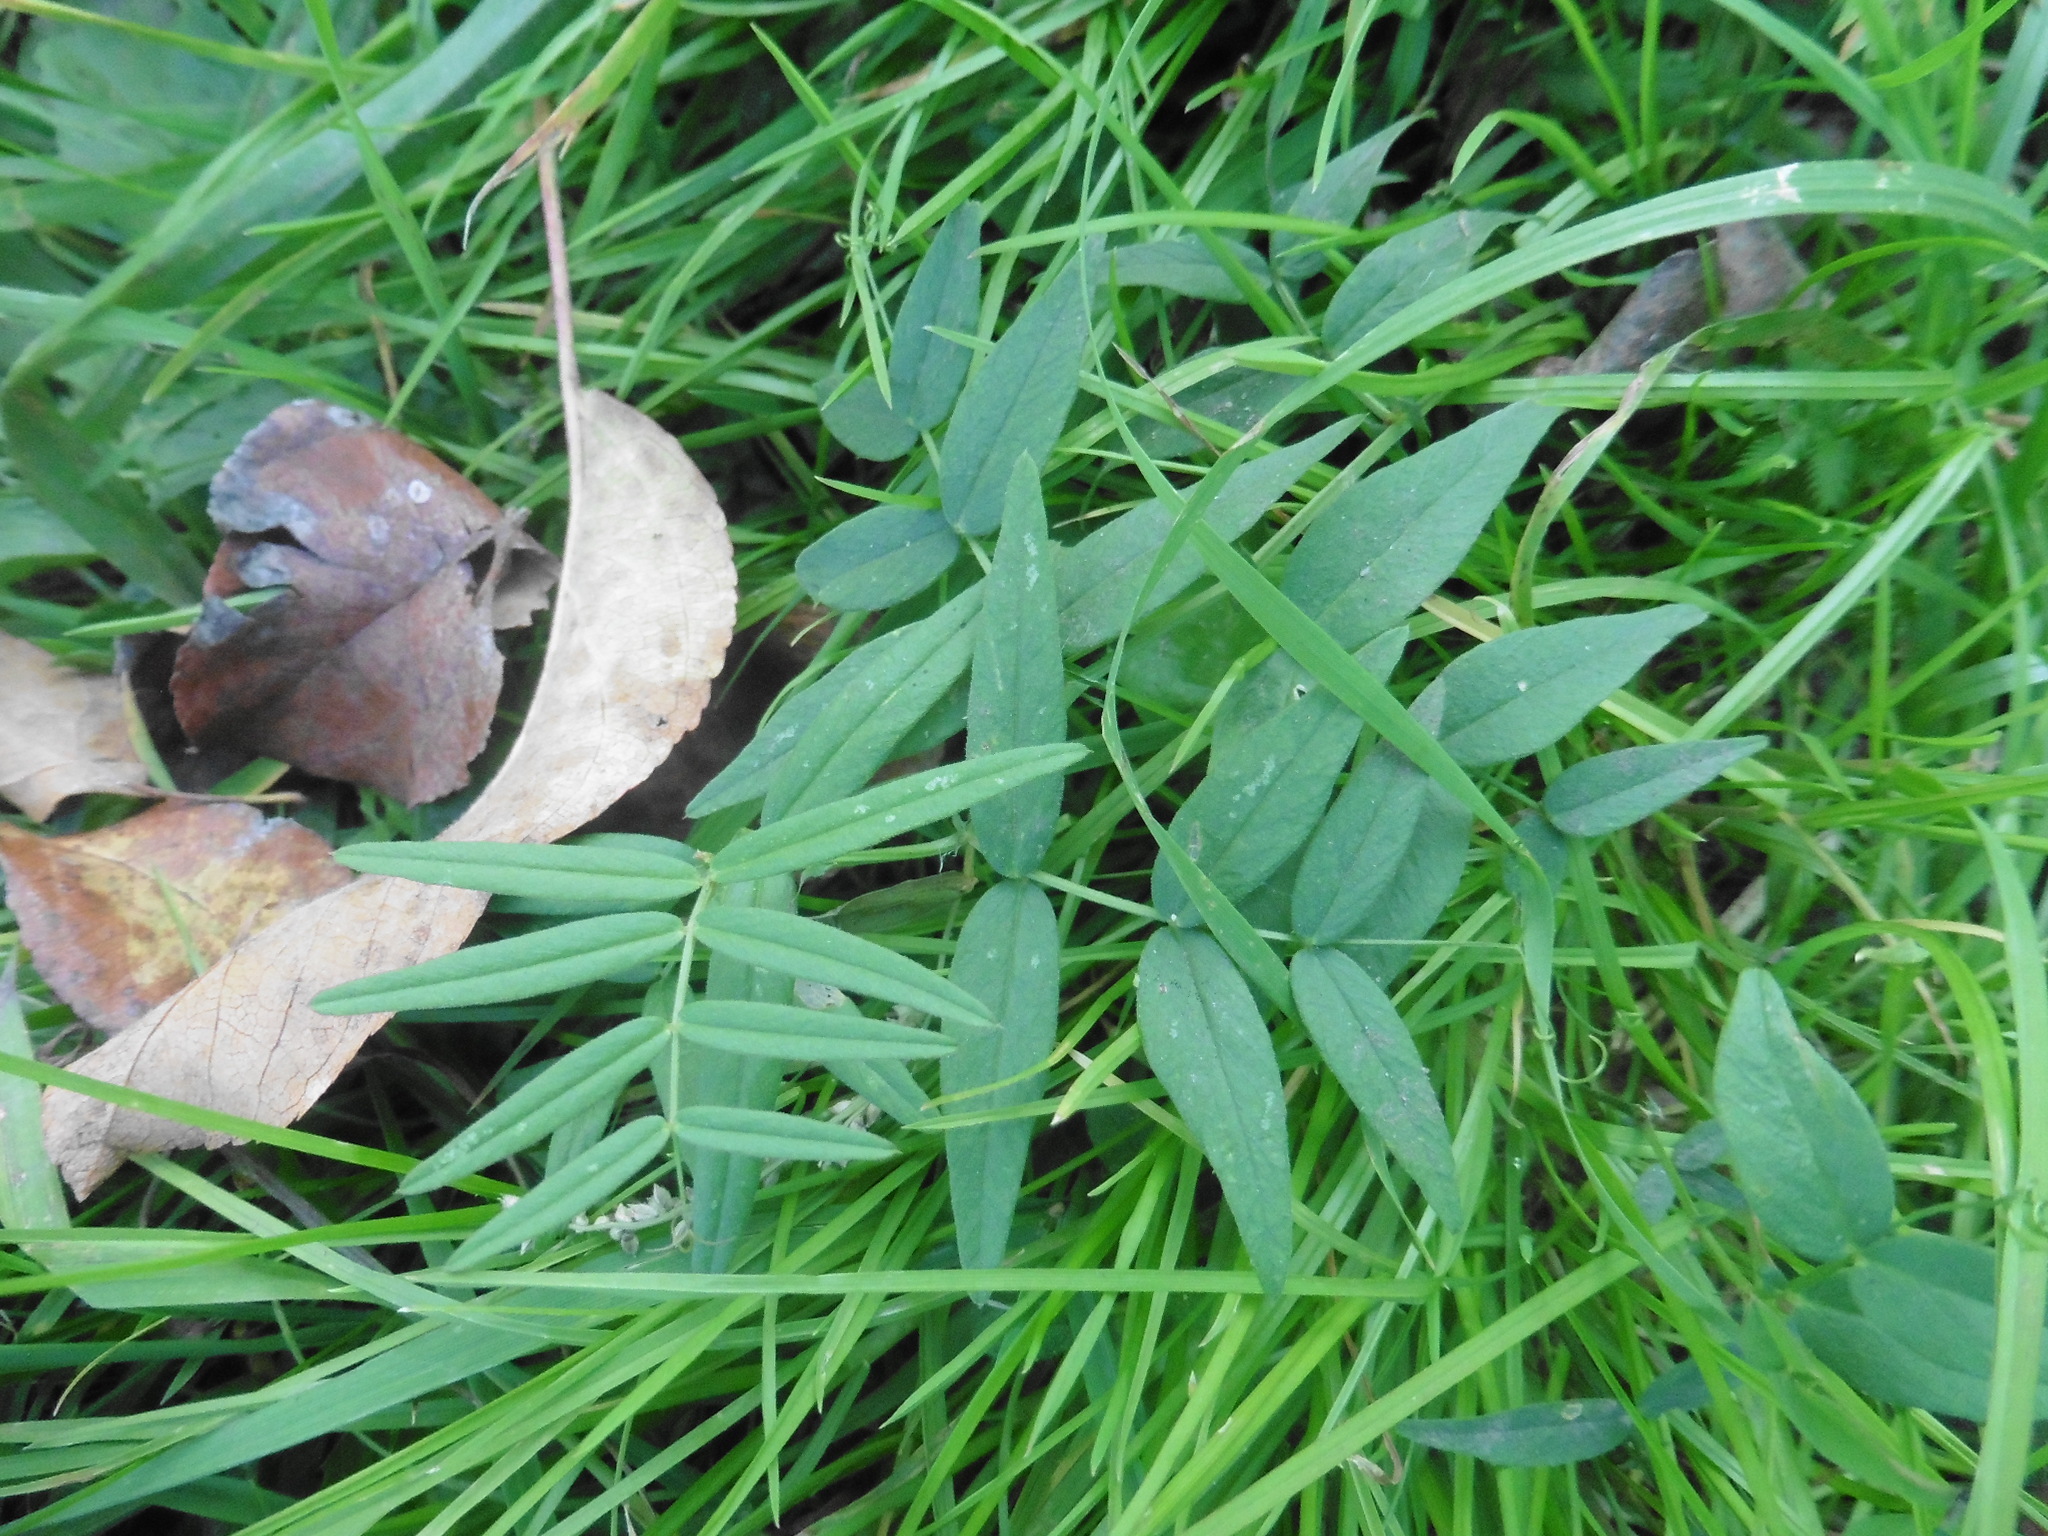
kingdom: Plantae
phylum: Tracheophyta
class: Magnoliopsida
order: Fabales
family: Fabaceae
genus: Vicia
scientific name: Vicia sepium
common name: Bush vetch
